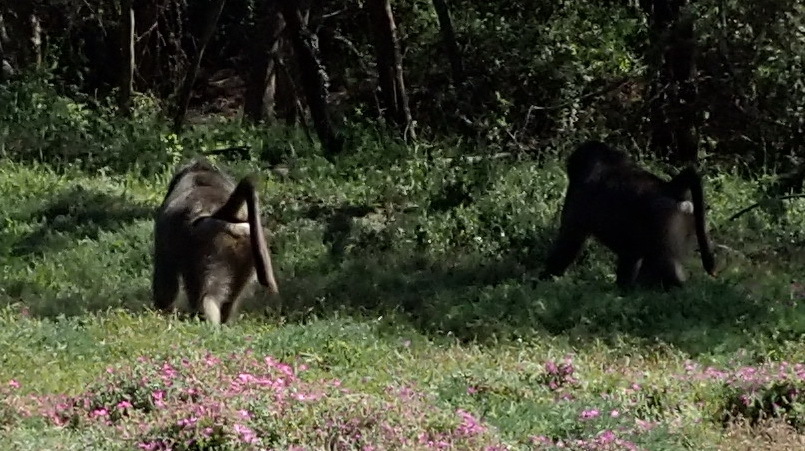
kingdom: Animalia
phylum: Chordata
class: Mammalia
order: Primates
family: Cercopithecidae
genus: Papio
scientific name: Papio ursinus
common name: Chacma baboon
